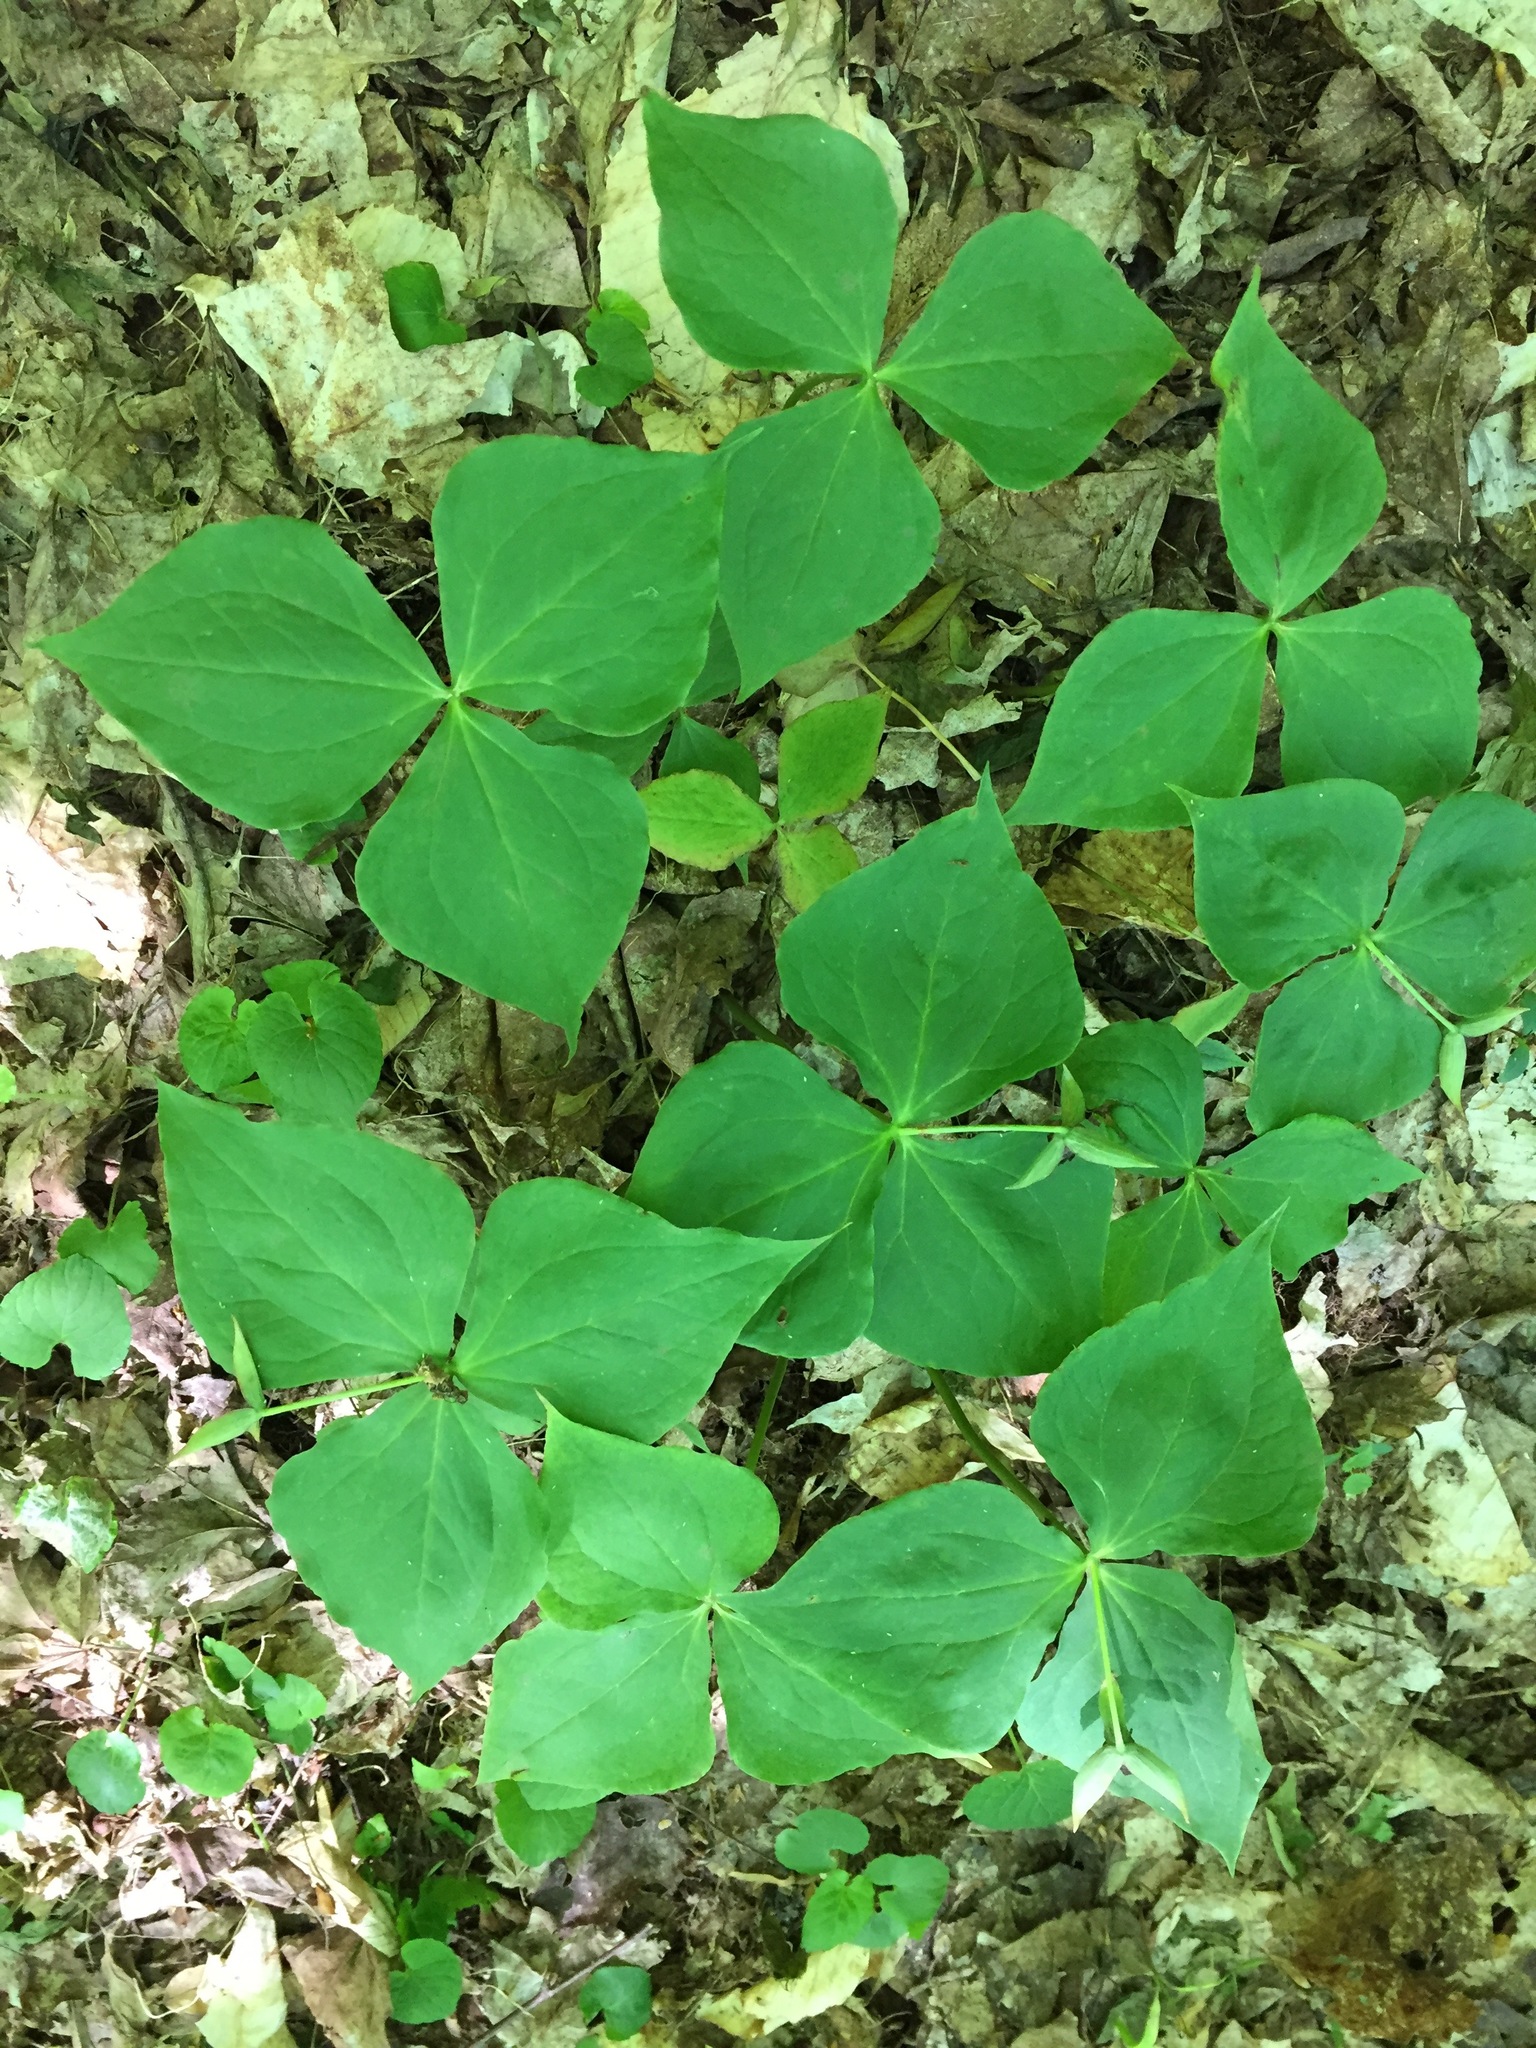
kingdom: Plantae
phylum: Tracheophyta
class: Liliopsida
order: Liliales
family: Melanthiaceae
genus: Trillium
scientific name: Trillium erectum
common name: Purple trillium
